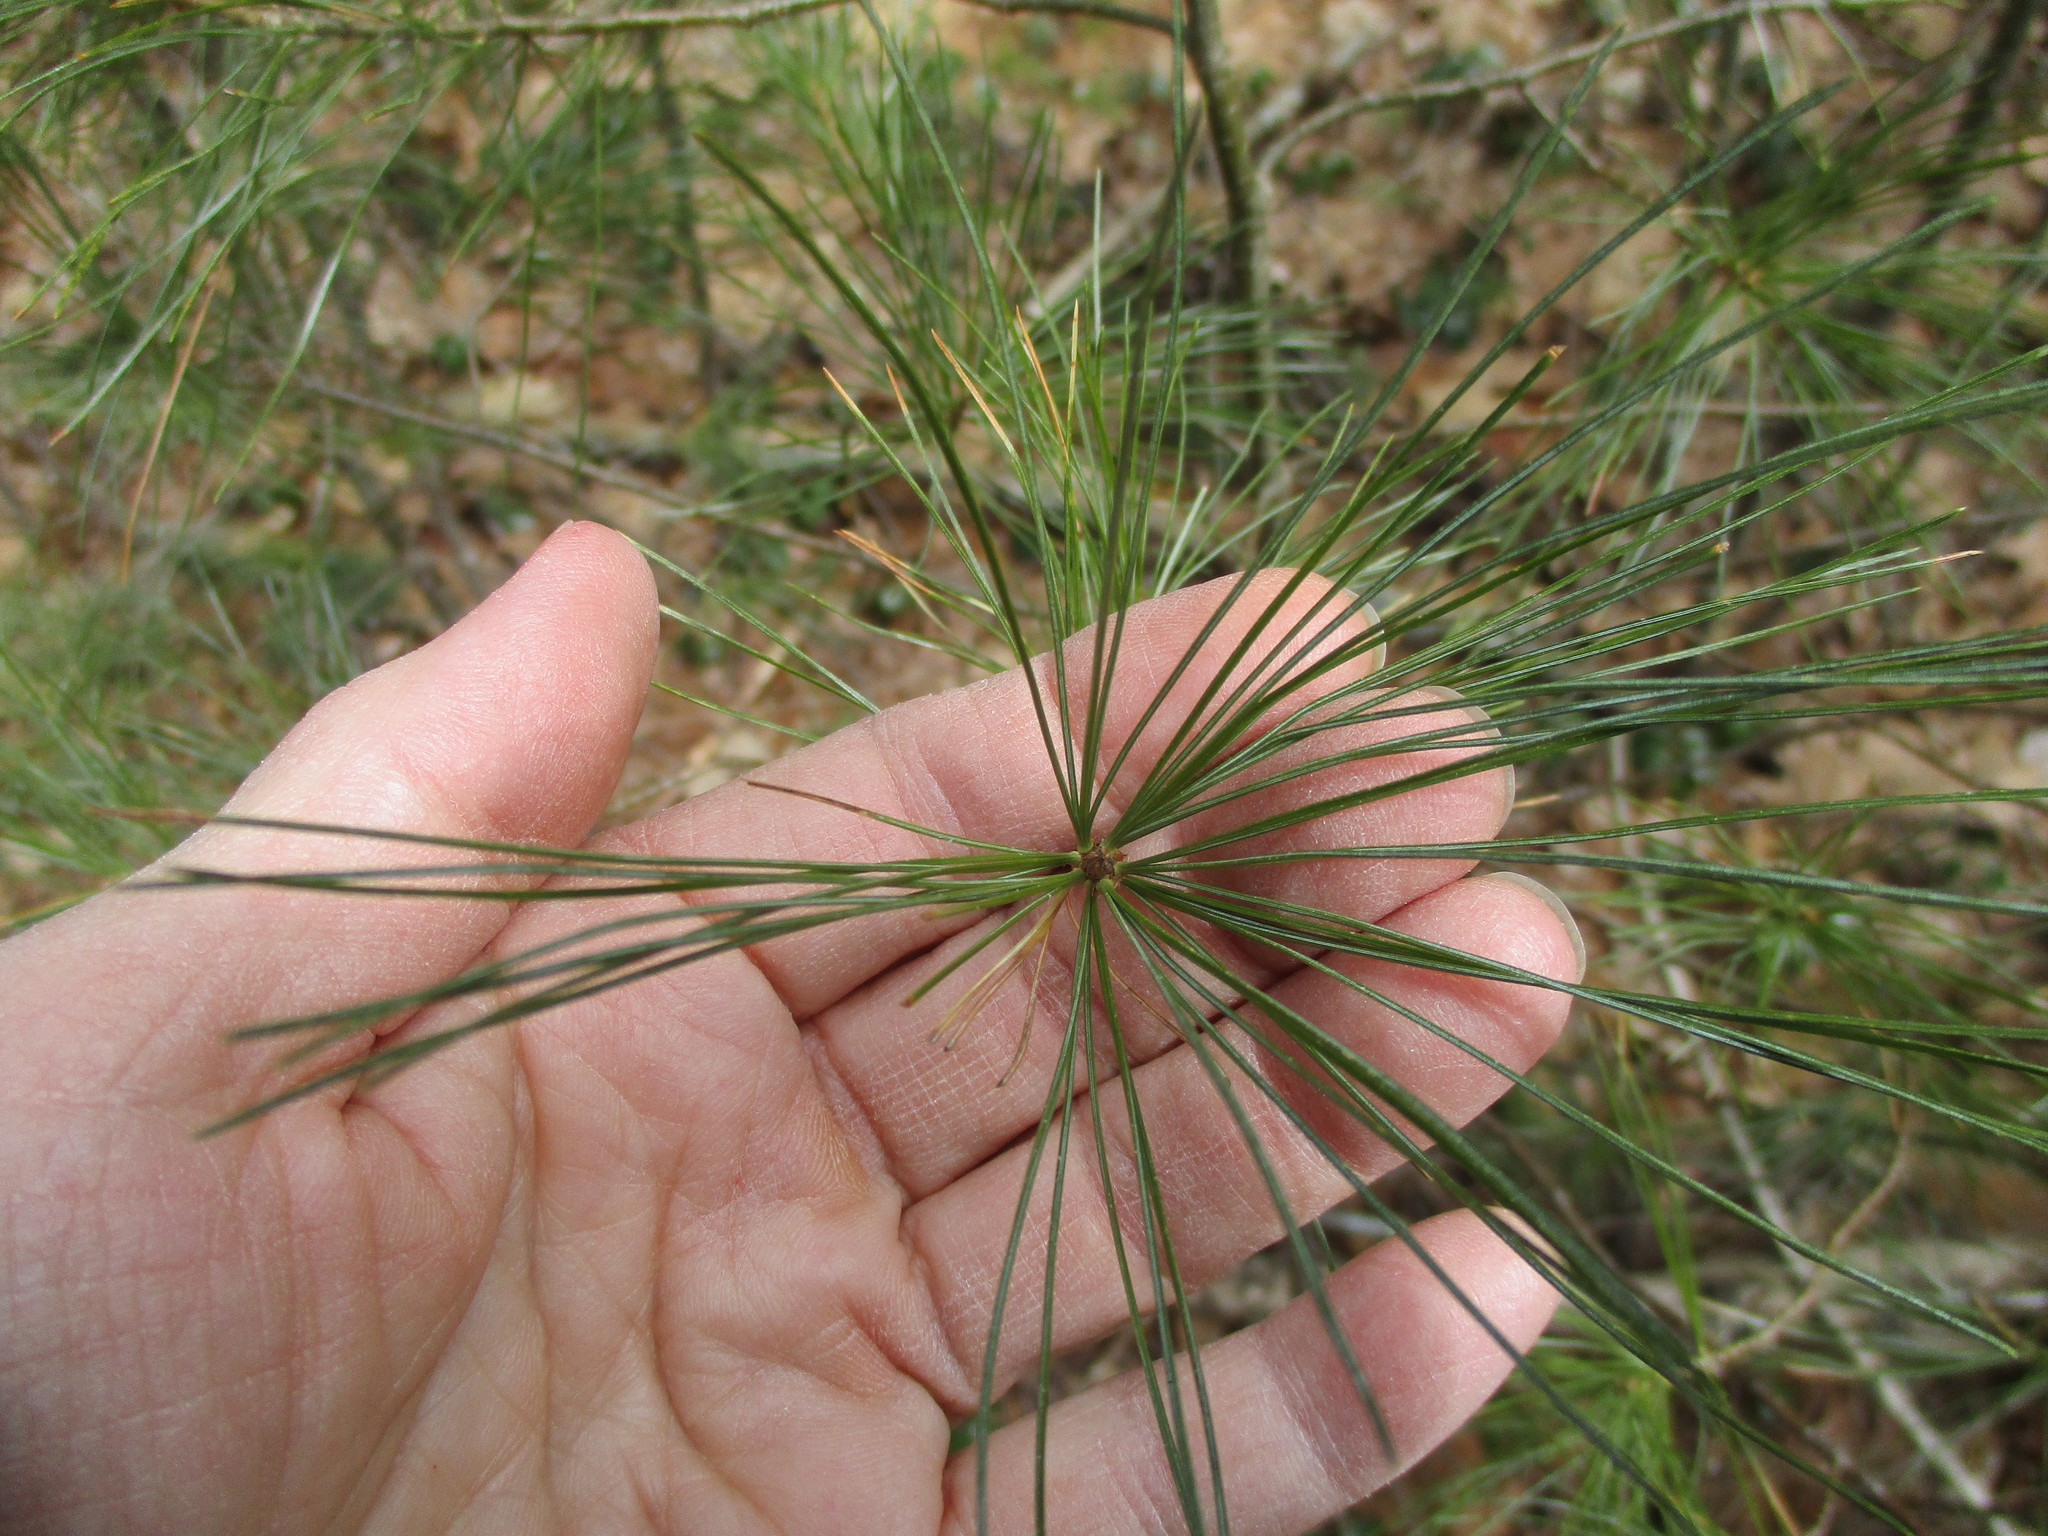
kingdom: Plantae
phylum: Tracheophyta
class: Pinopsida
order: Pinales
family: Pinaceae
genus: Pinus
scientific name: Pinus strobus
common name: Weymouth pine
